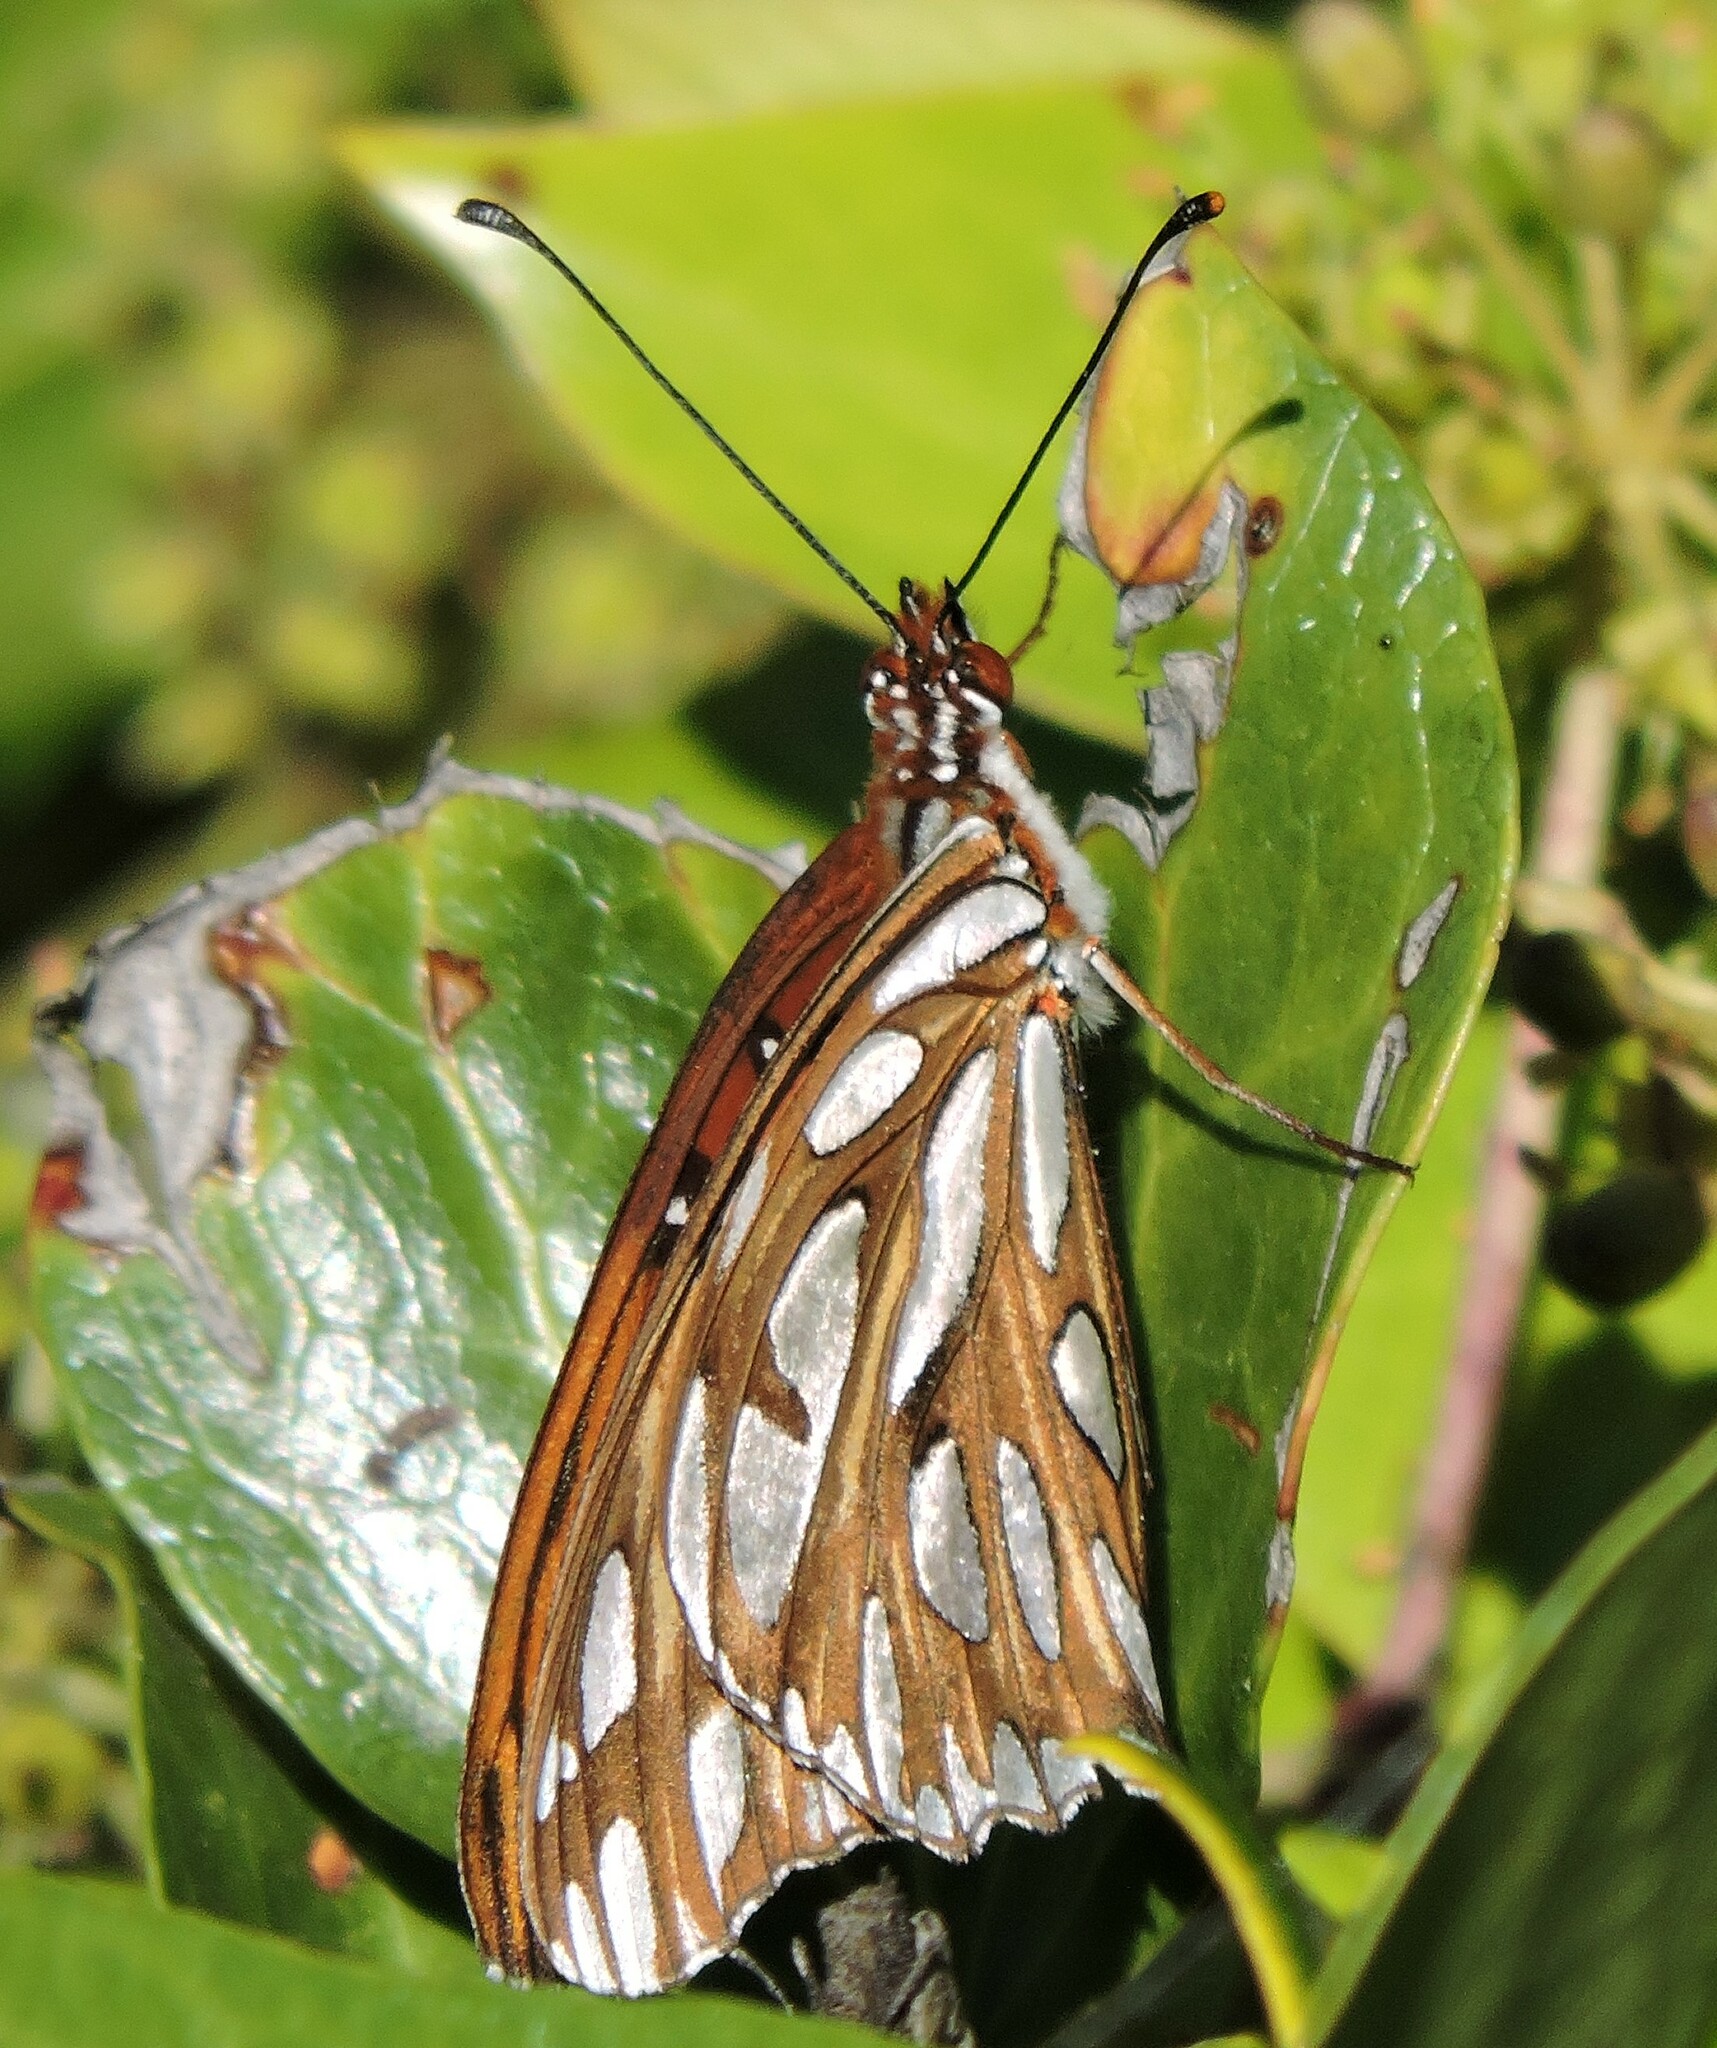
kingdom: Animalia
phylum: Arthropoda
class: Insecta
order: Lepidoptera
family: Nymphalidae
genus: Dione
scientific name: Dione vanillae
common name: Gulf fritillary
